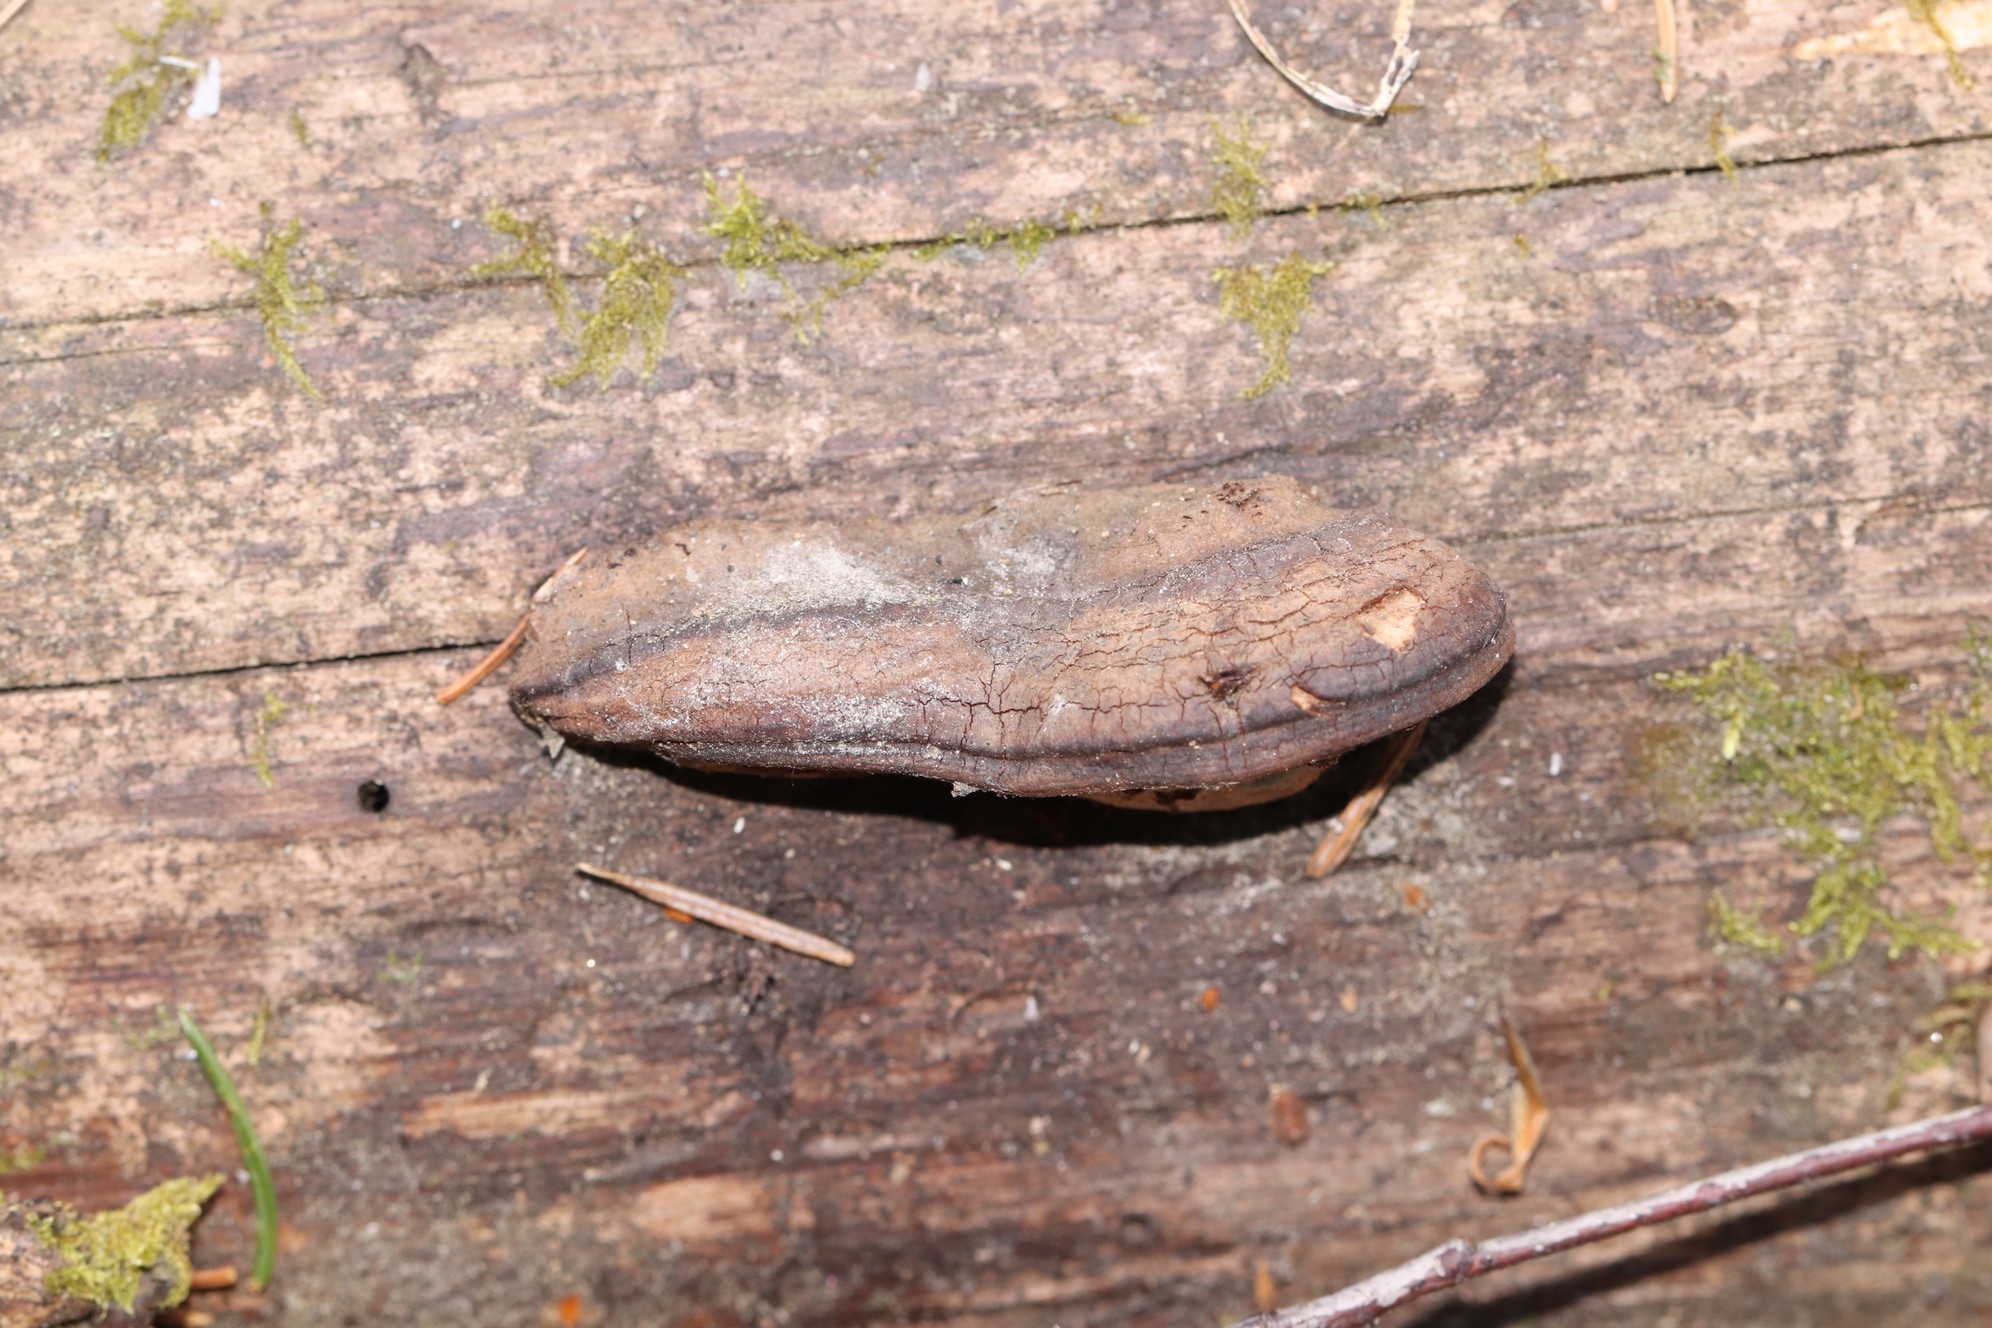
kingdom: Fungi
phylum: Basidiomycota
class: Agaricomycetes
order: Polyporales
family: Fomitopsidaceae
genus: Rhodofomes
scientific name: Rhodofomes roseus
